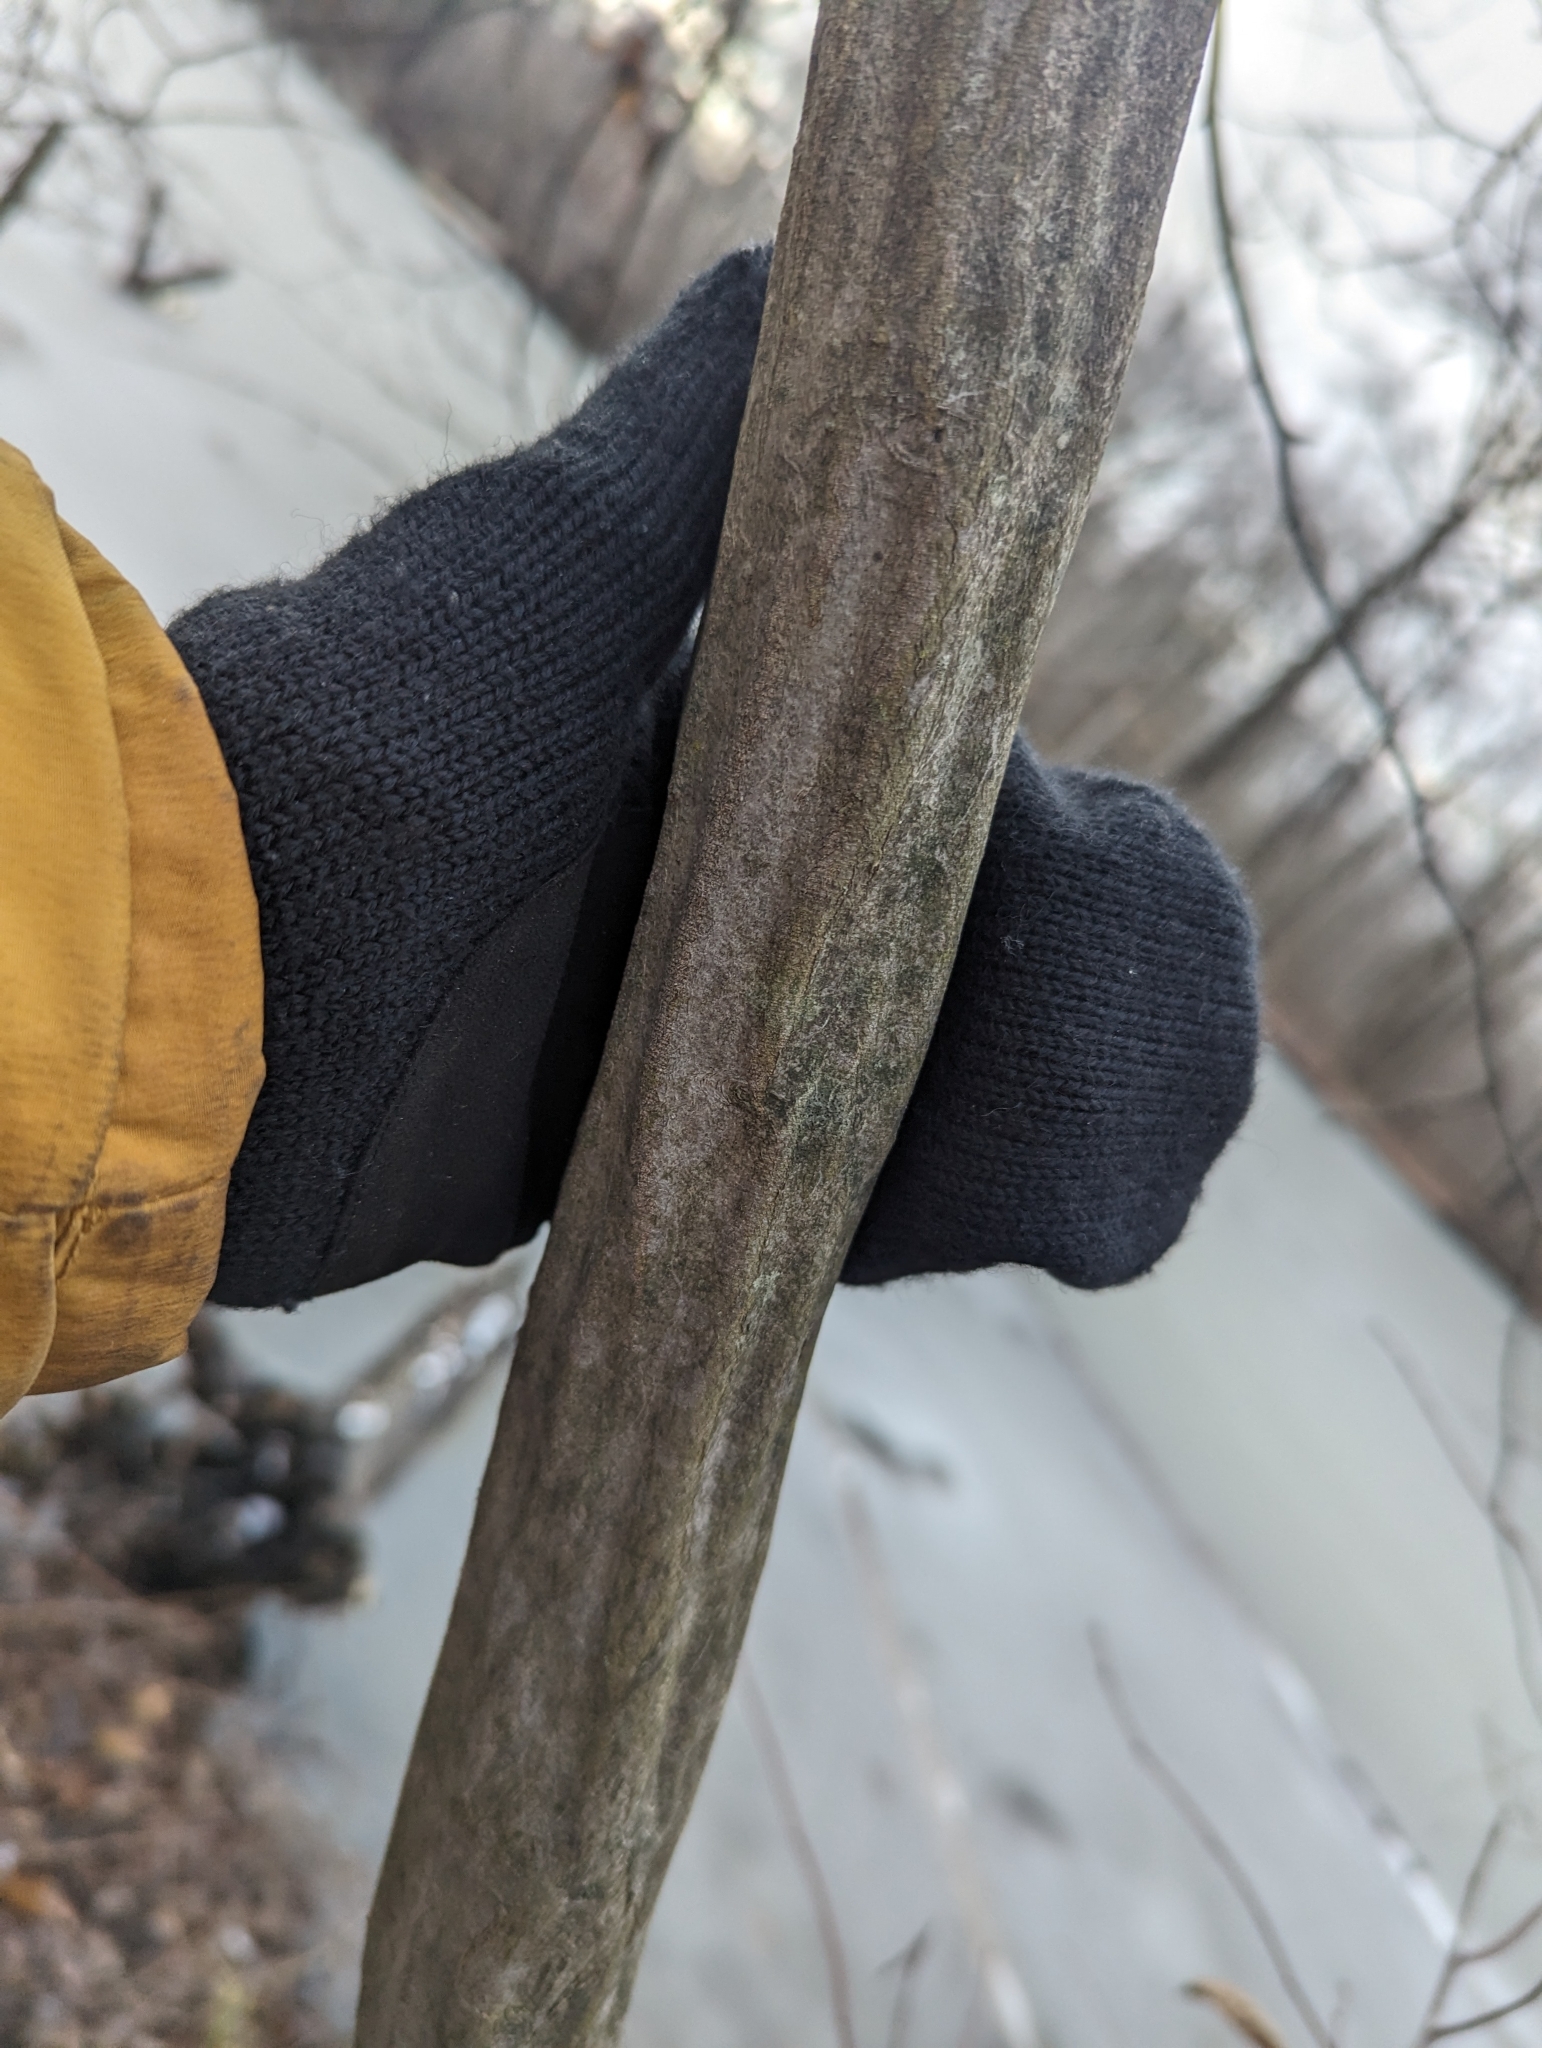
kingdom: Plantae
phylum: Tracheophyta
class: Magnoliopsida
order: Fagales
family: Betulaceae
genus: Carpinus
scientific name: Carpinus caroliniana
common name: American hornbeam
